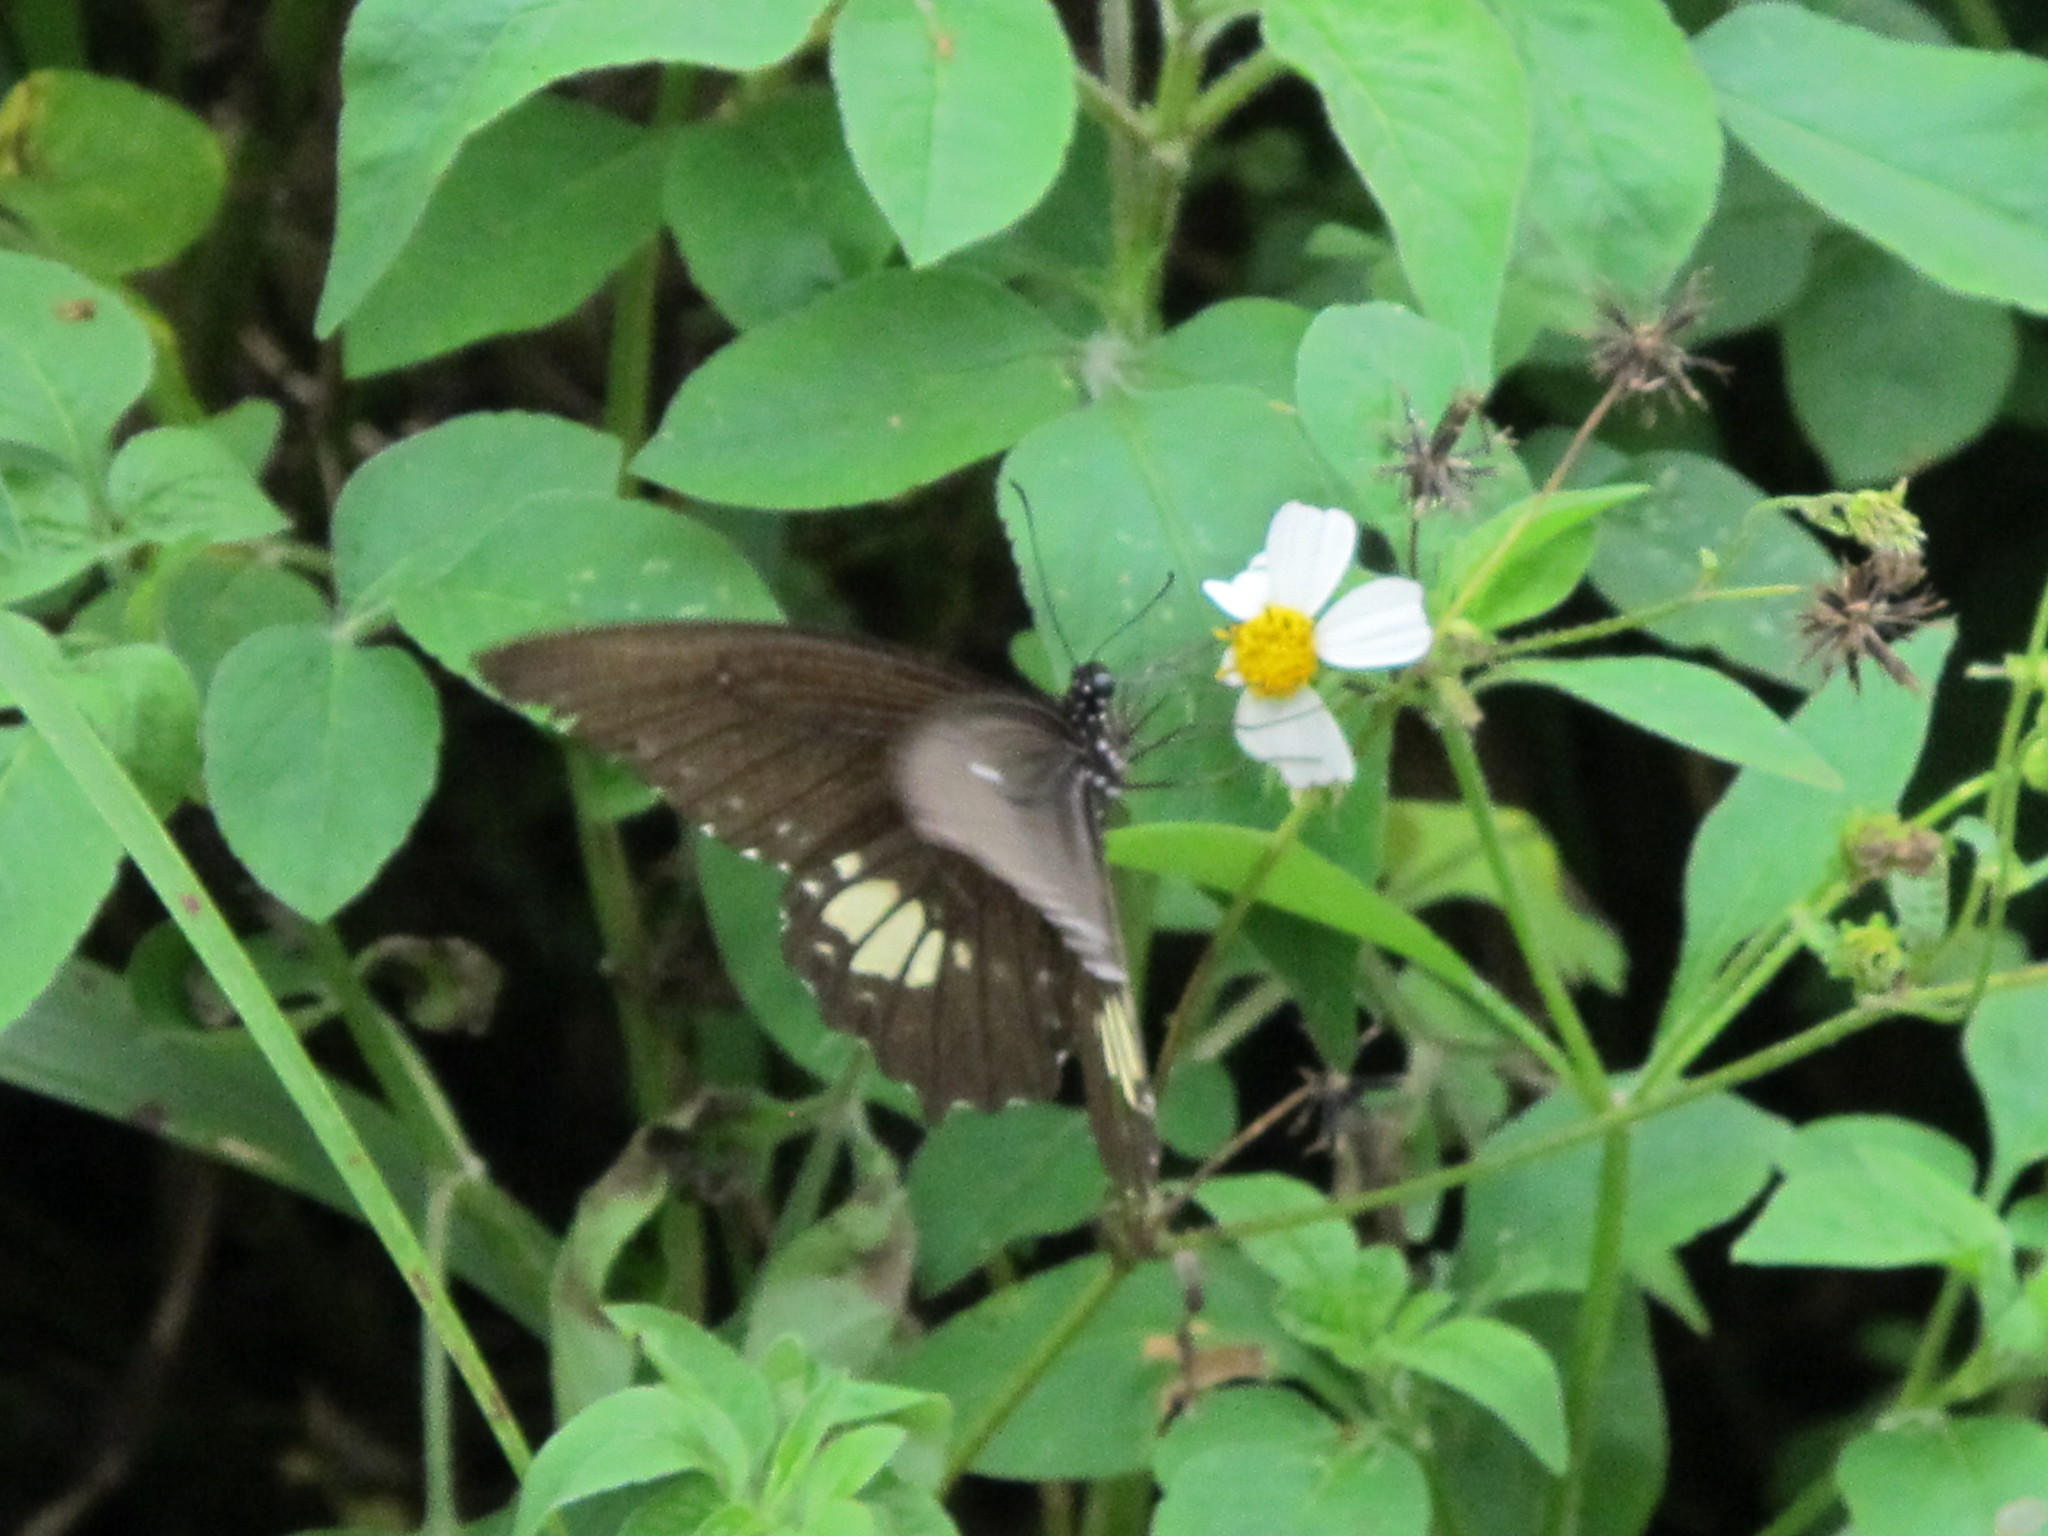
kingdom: Animalia
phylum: Arthropoda
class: Insecta
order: Lepidoptera
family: Papilionidae
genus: Papilio
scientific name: Papilio castor
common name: Common raven
